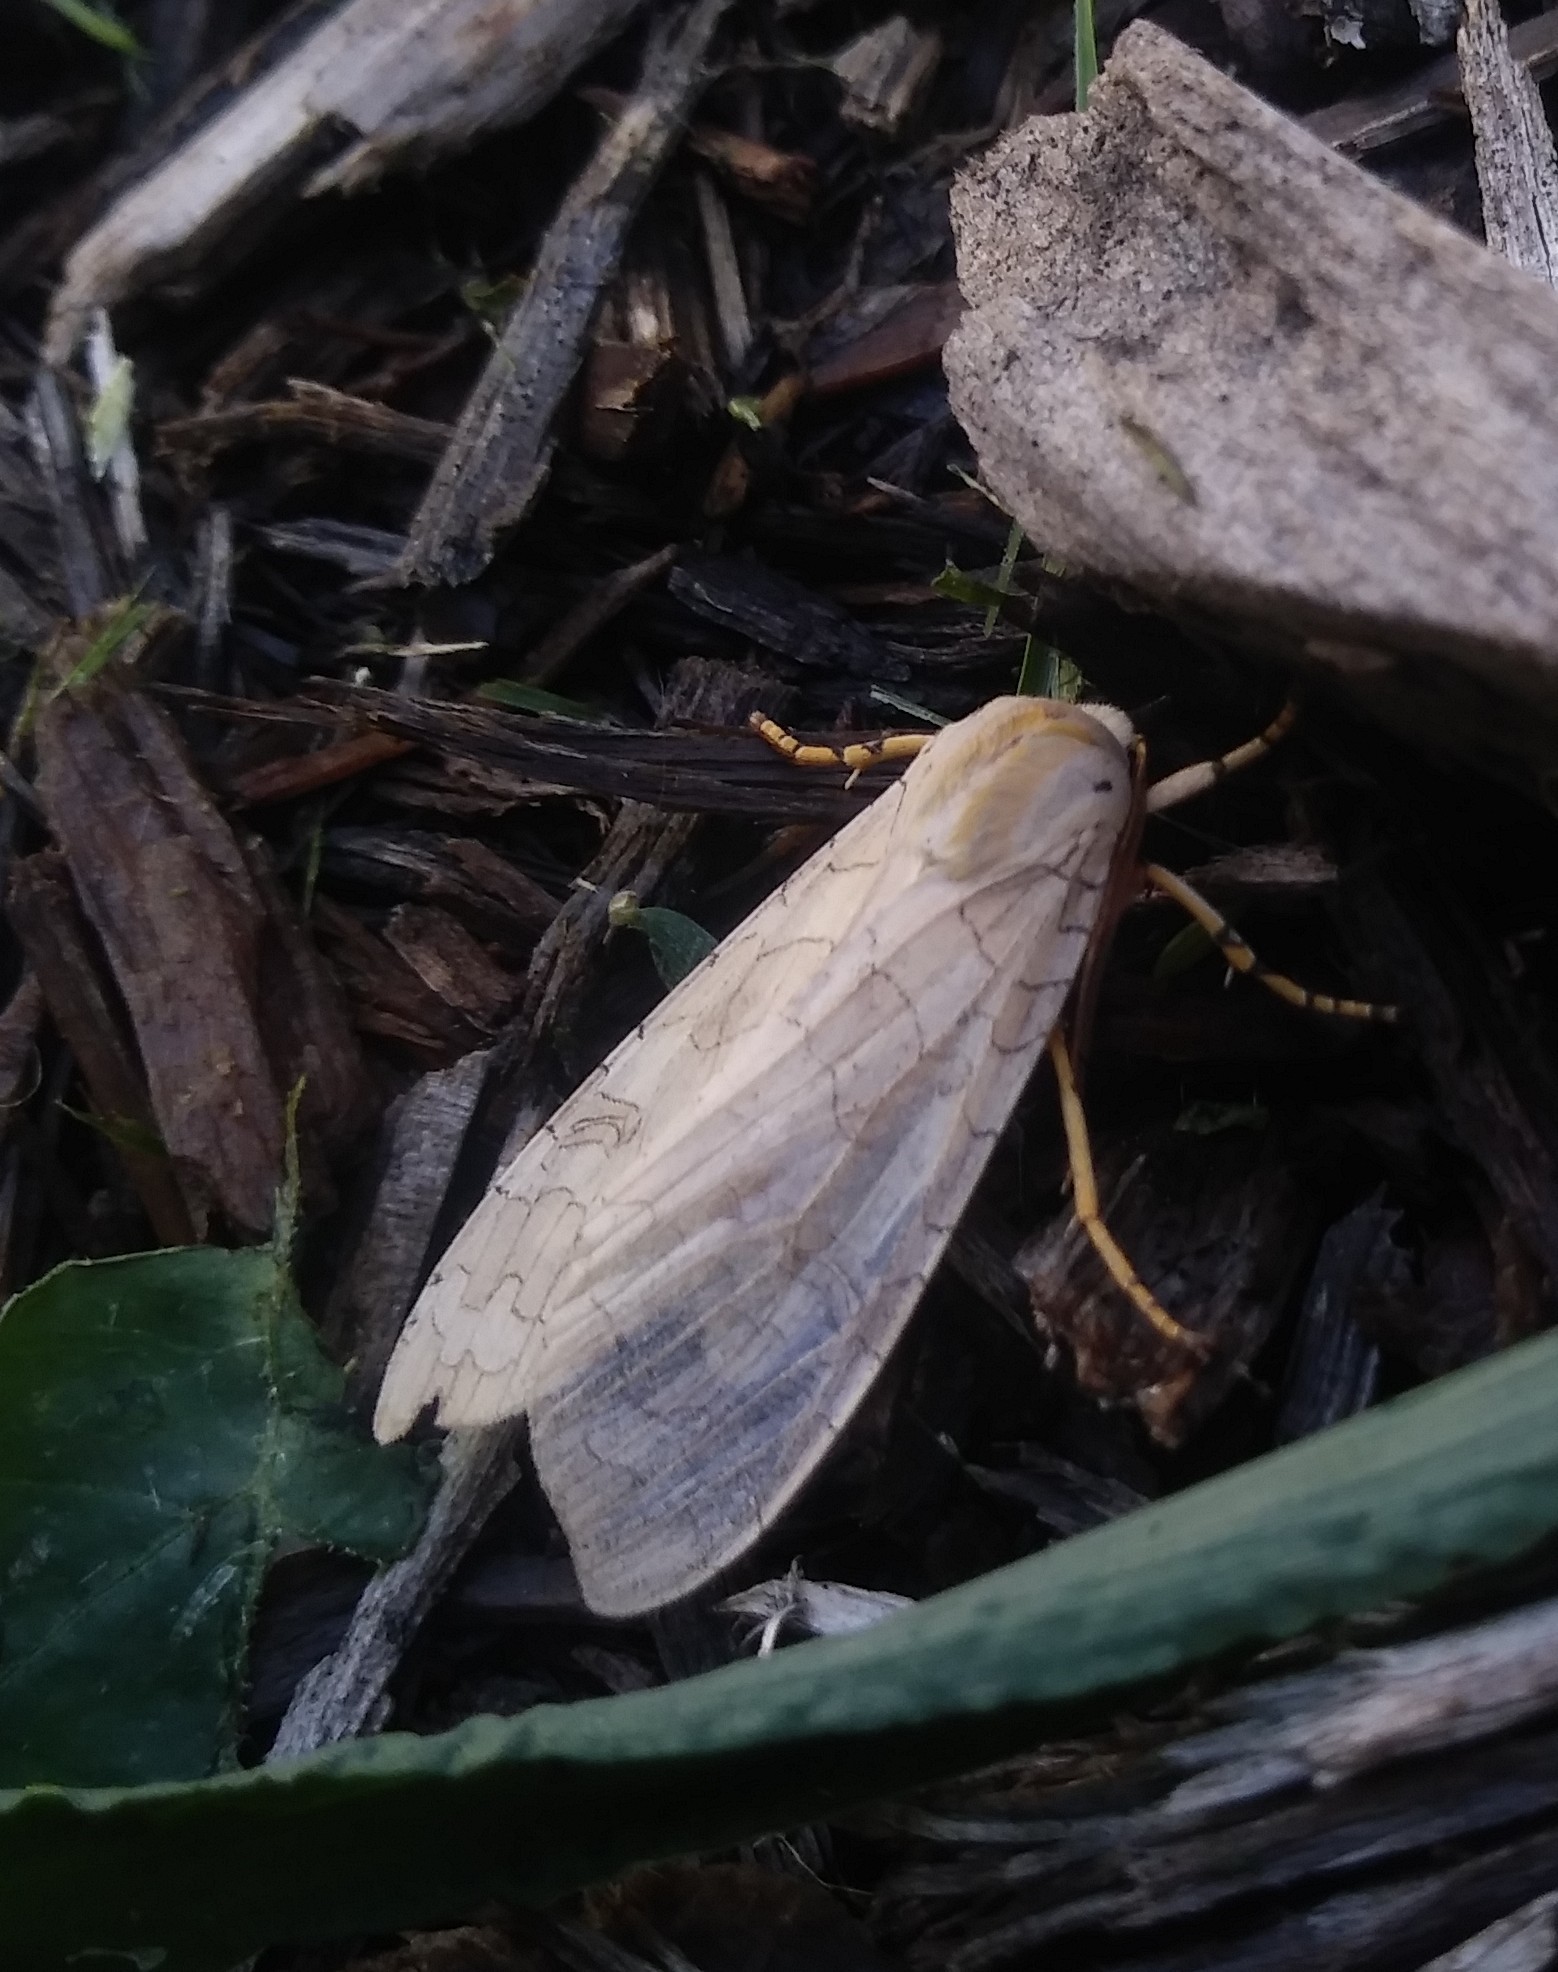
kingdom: Animalia
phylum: Arthropoda
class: Insecta
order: Lepidoptera
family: Erebidae
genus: Halysidota
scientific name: Halysidota
